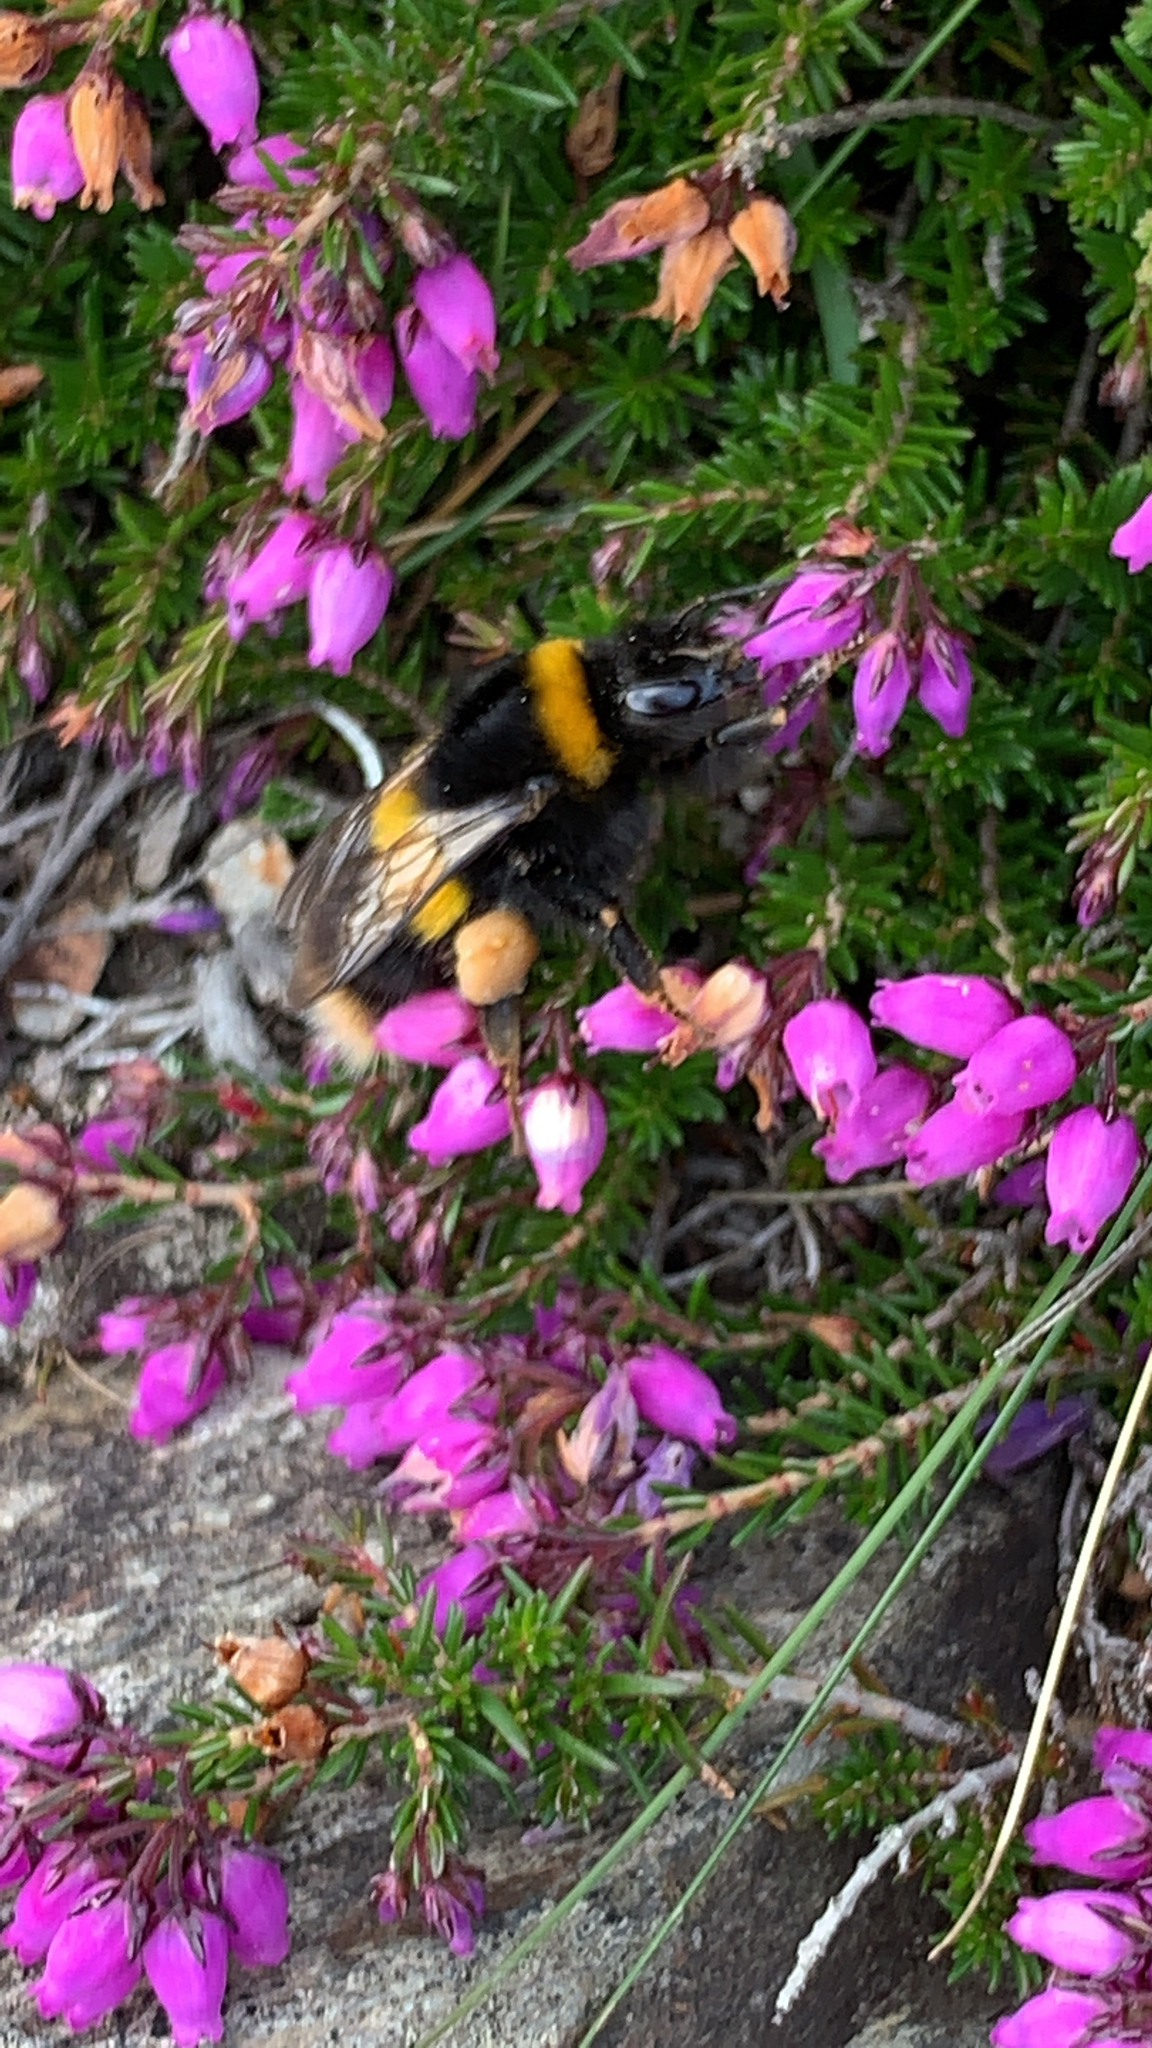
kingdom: Animalia
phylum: Arthropoda
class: Insecta
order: Hymenoptera
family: Apidae
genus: Bombus
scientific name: Bombus terrestris
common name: Buff-tailed bumblebee
